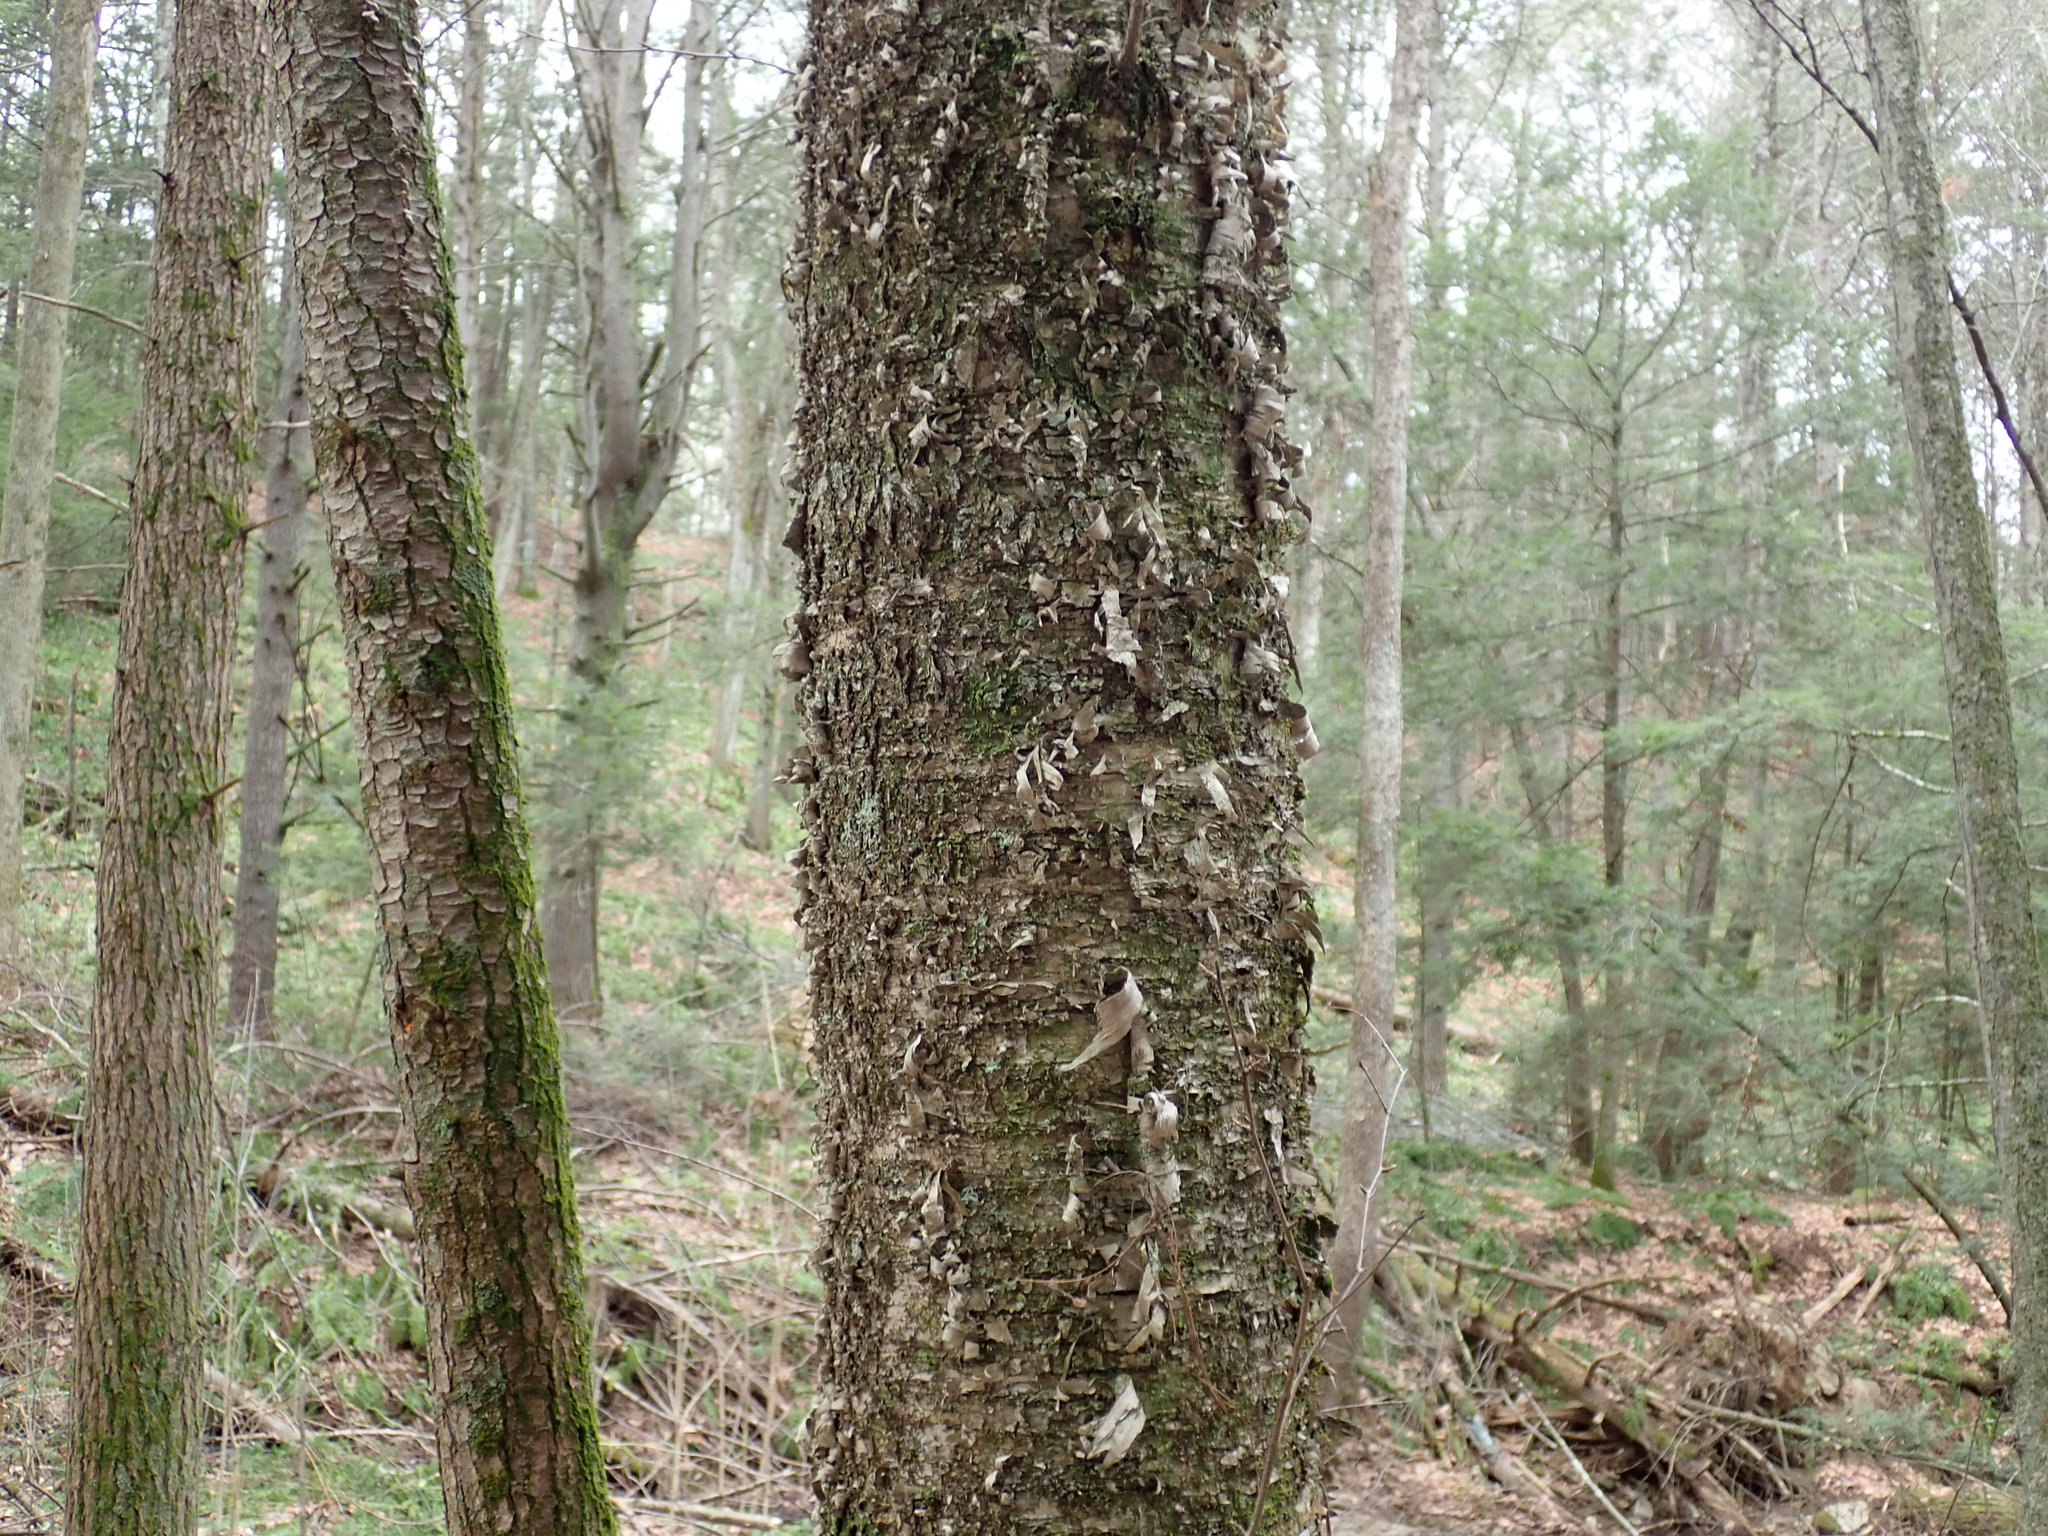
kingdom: Plantae
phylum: Tracheophyta
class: Magnoliopsida
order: Fagales
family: Betulaceae
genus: Betula
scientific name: Betula alleghaniensis
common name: Yellow birch
